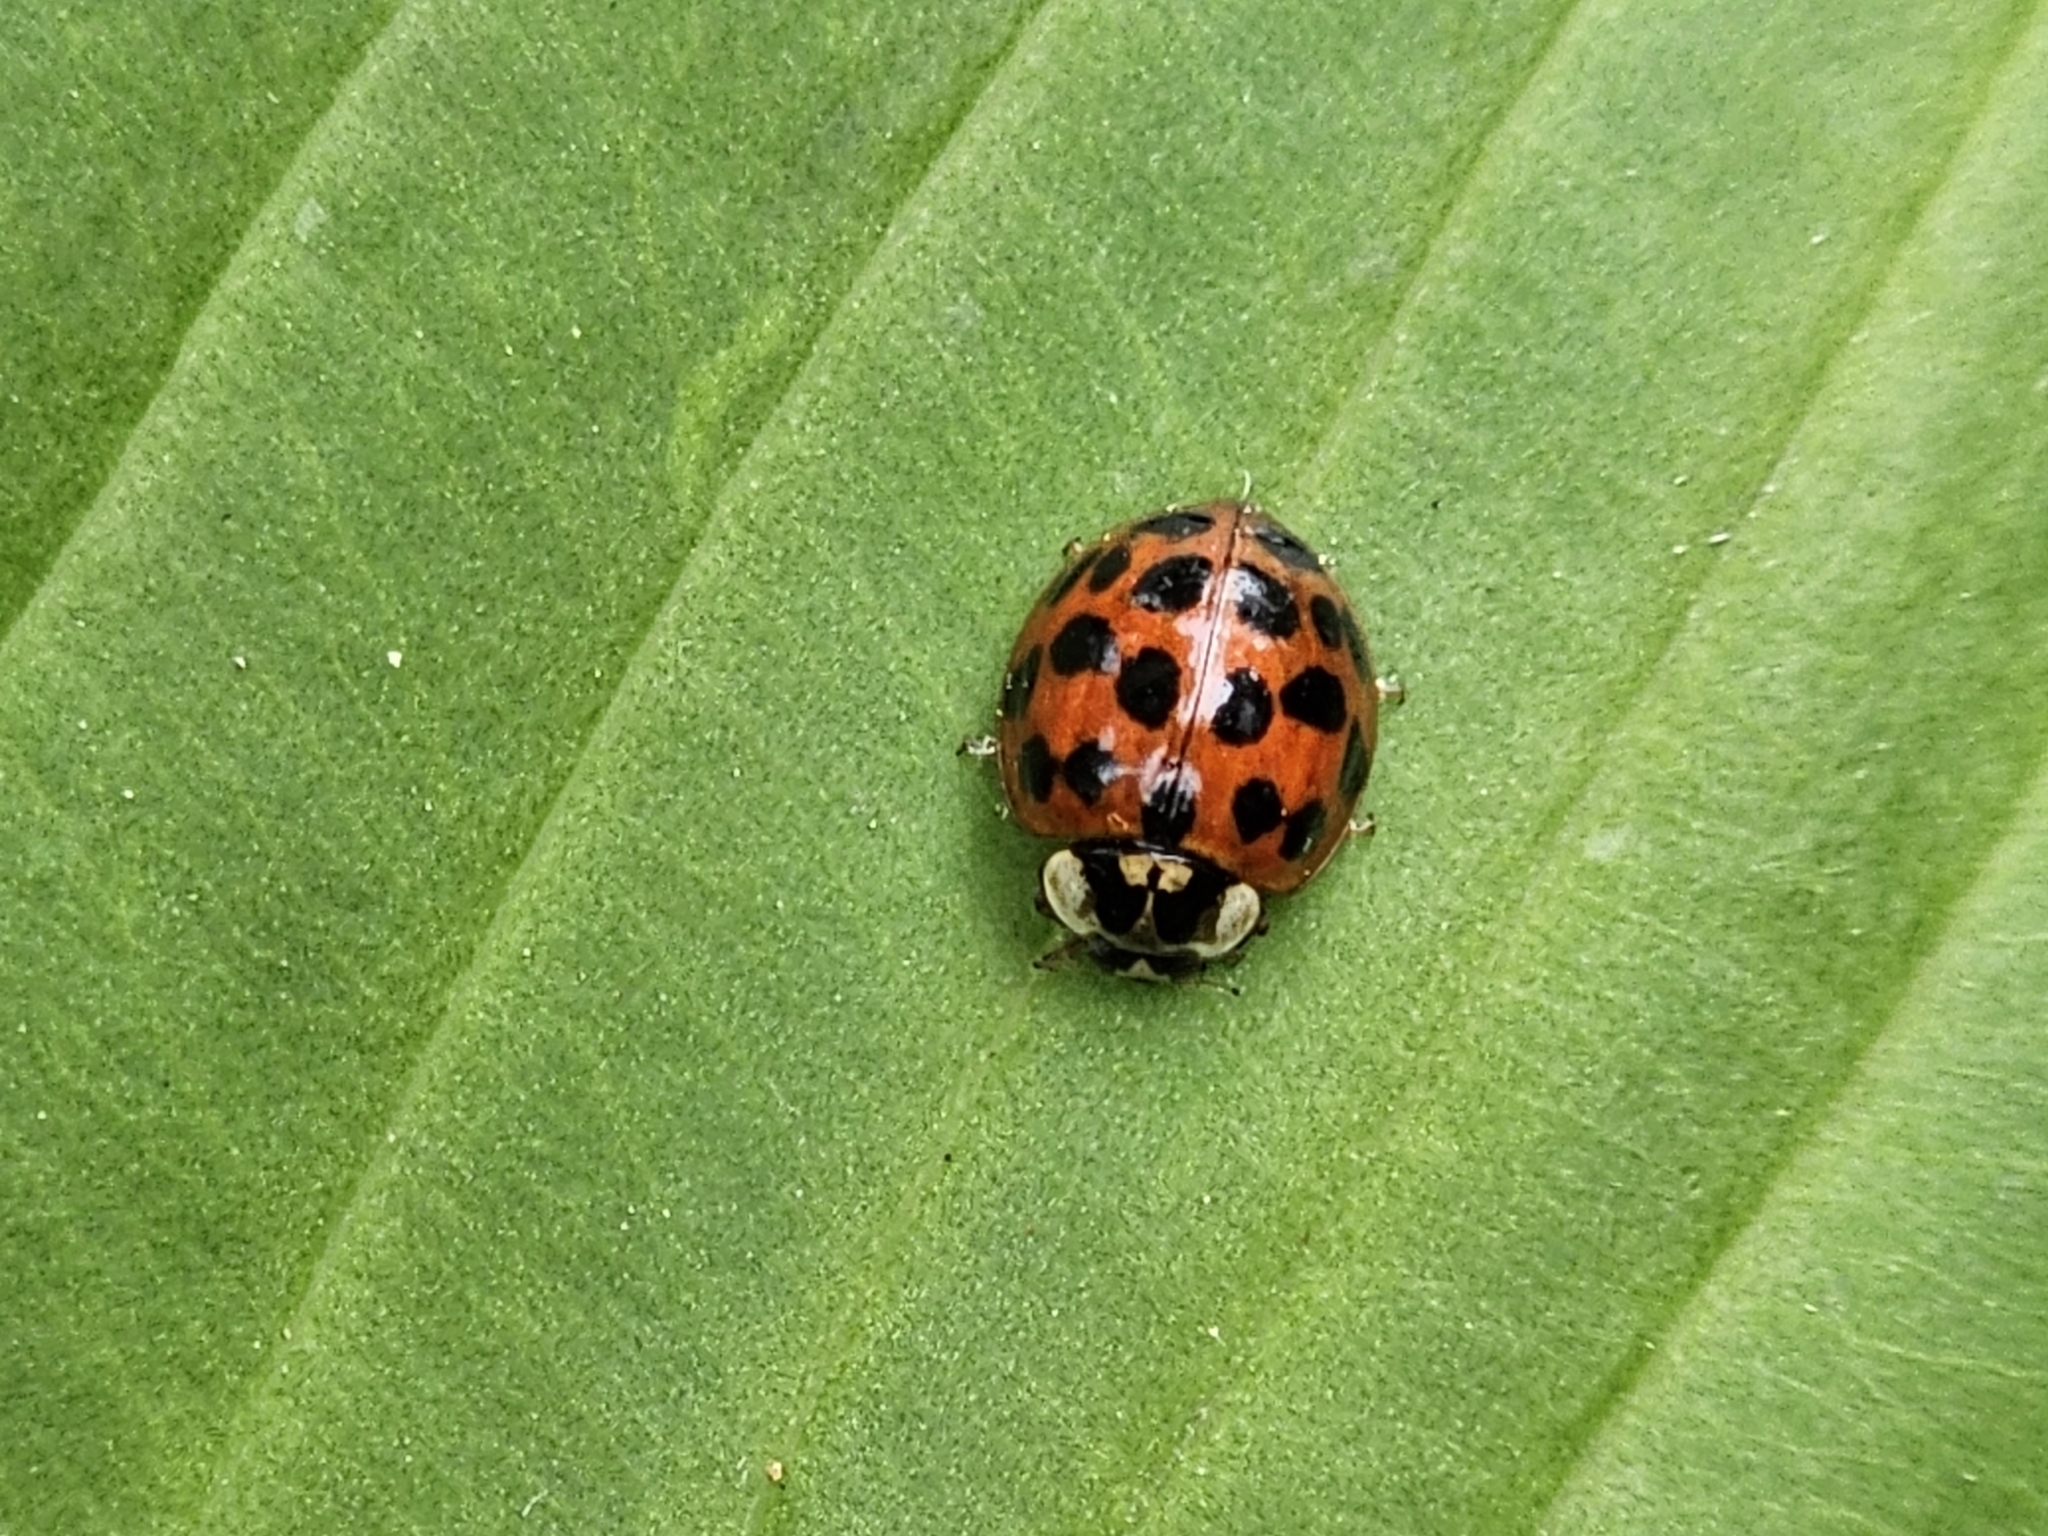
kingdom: Animalia
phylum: Arthropoda
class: Insecta
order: Coleoptera
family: Coccinellidae
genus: Harmonia
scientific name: Harmonia axyridis
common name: Harlequin ladybird
